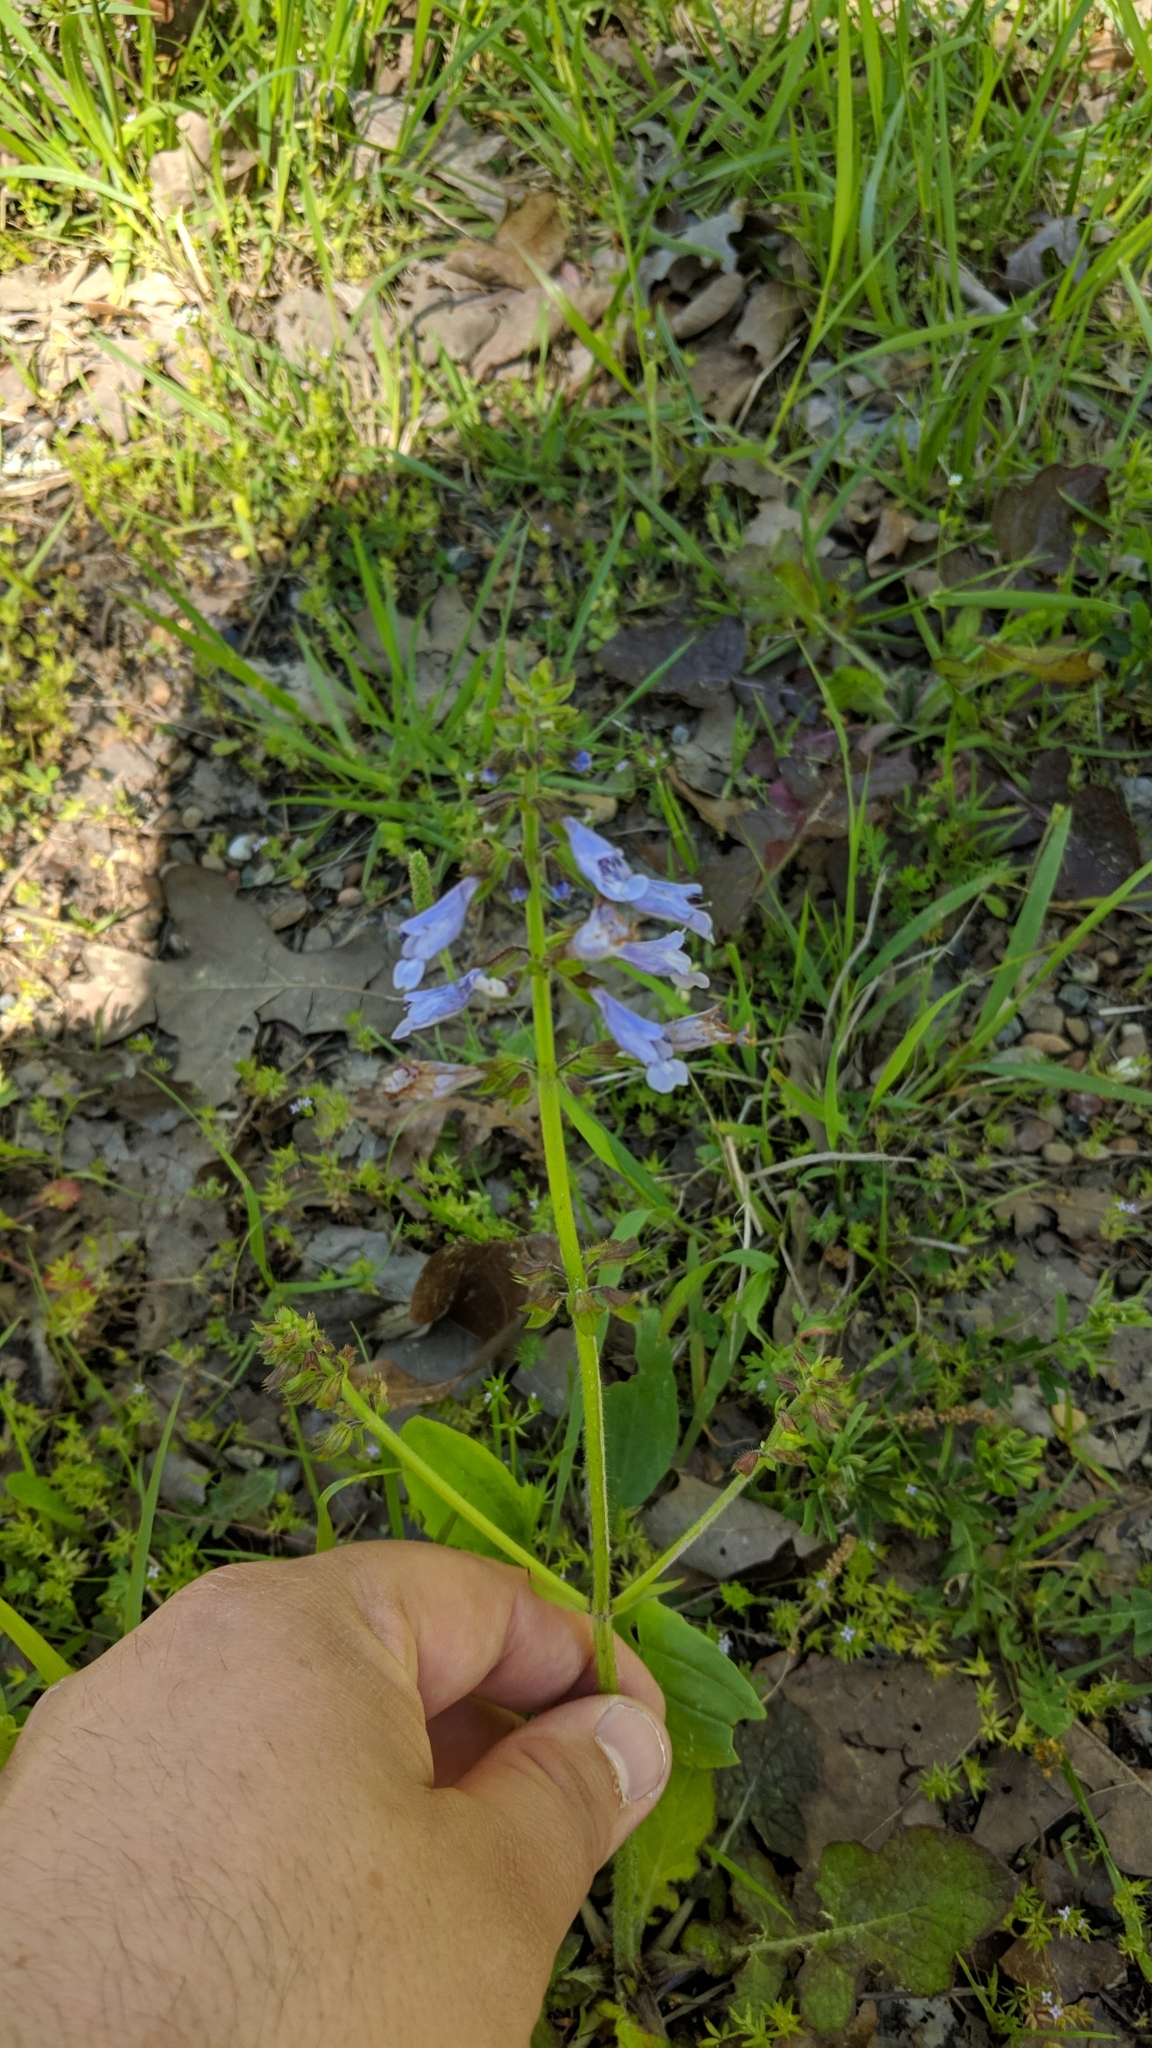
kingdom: Plantae
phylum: Tracheophyta
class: Magnoliopsida
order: Lamiales
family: Lamiaceae
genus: Salvia
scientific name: Salvia lyrata
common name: Cancerweed
